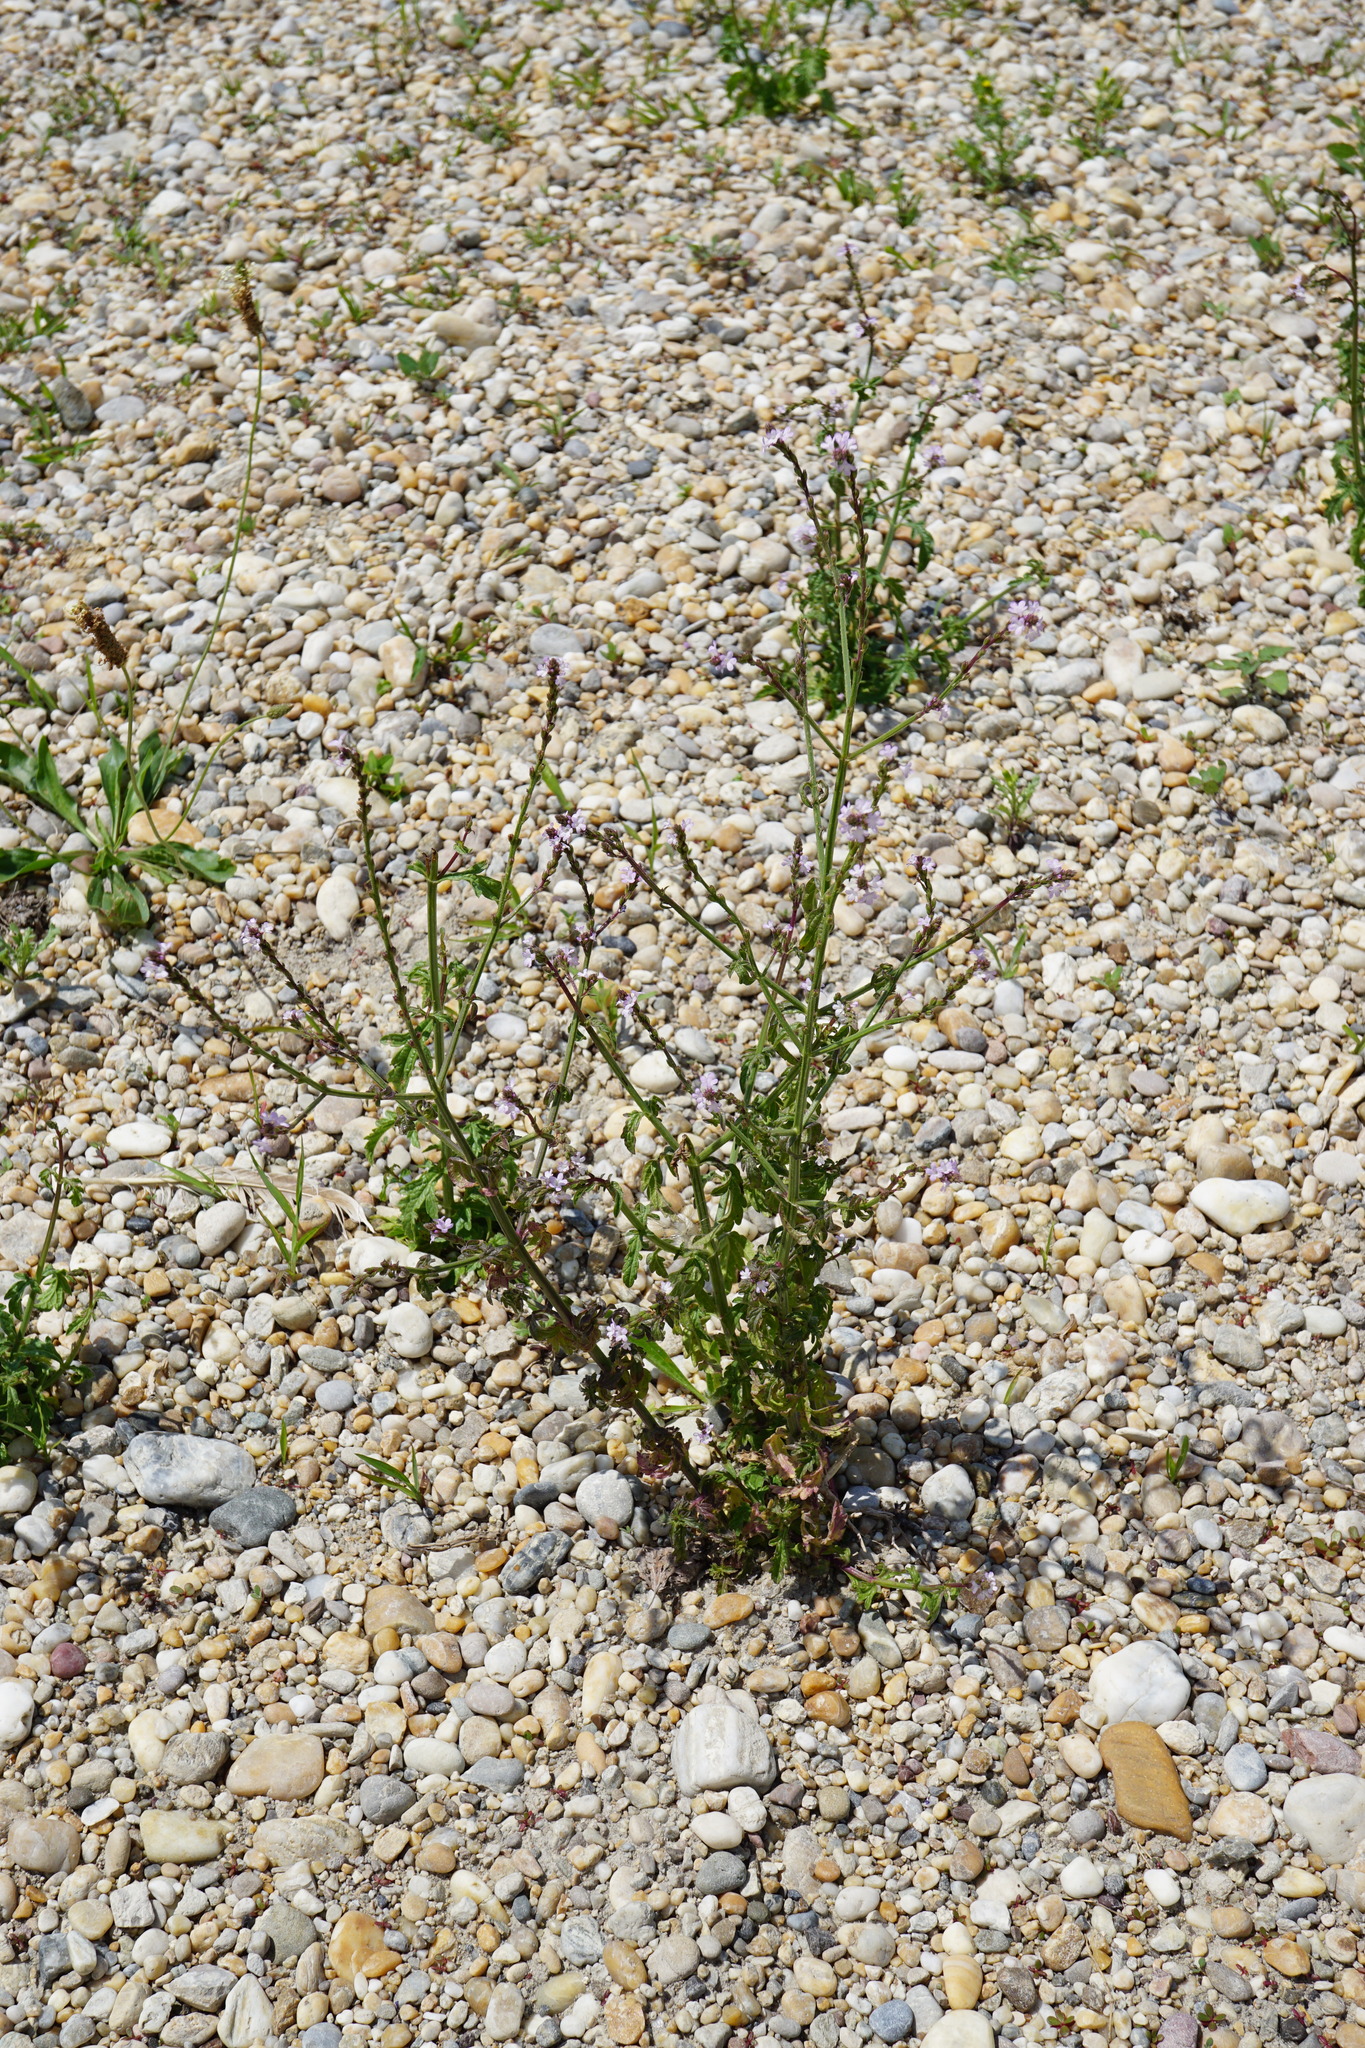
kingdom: Plantae
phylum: Tracheophyta
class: Magnoliopsida
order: Lamiales
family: Verbenaceae
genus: Verbena
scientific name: Verbena officinalis
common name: Vervain
